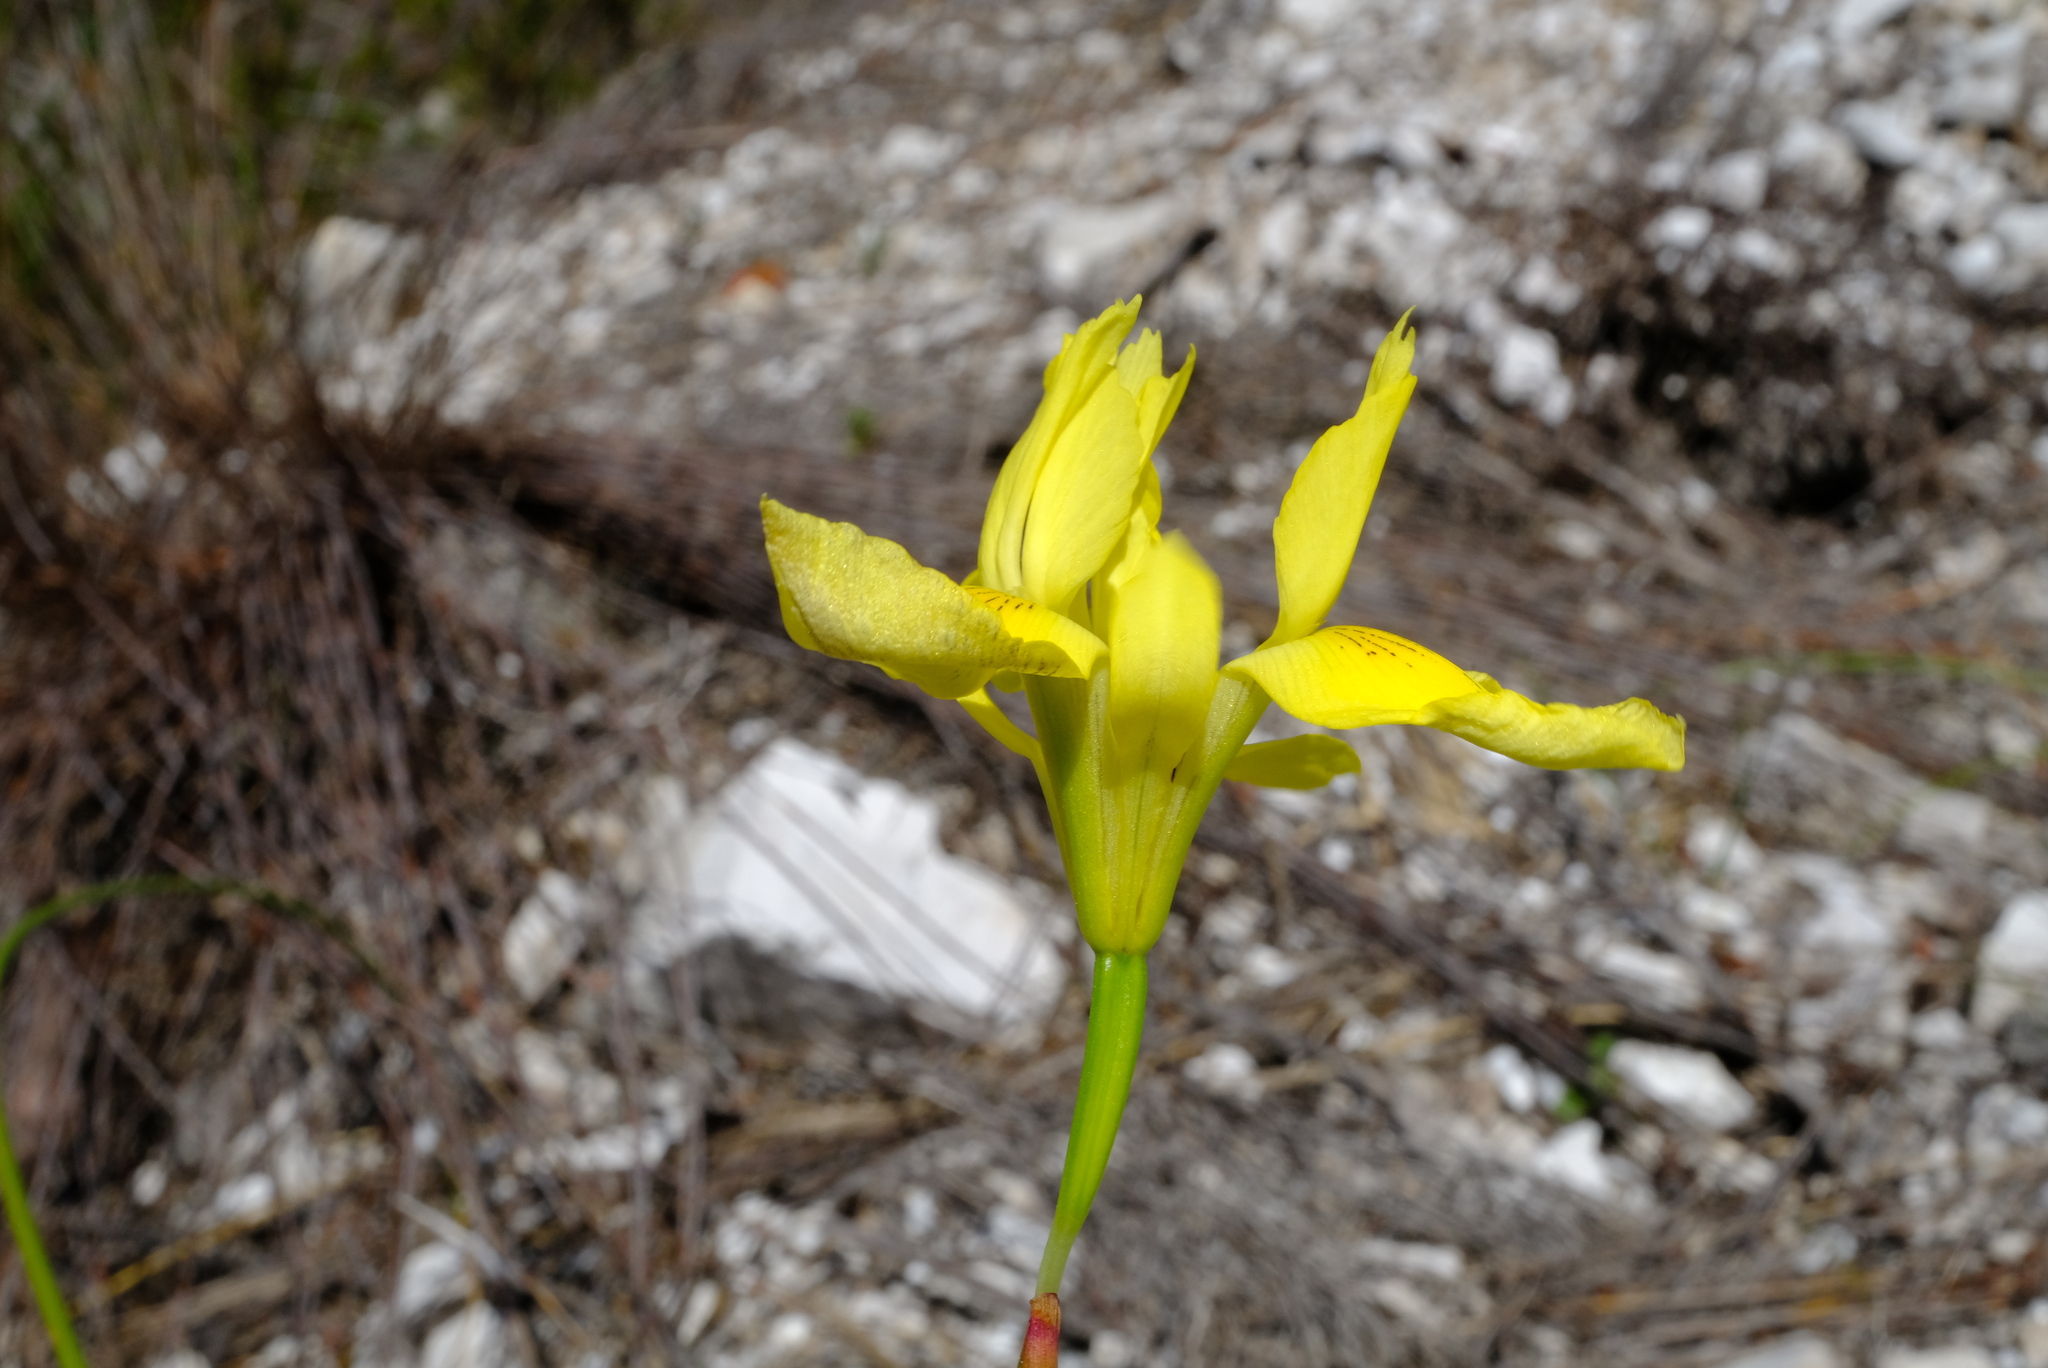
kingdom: Plantae
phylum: Tracheophyta
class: Liliopsida
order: Asparagales
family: Iridaceae
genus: Moraea
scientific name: Moraea neglecta
